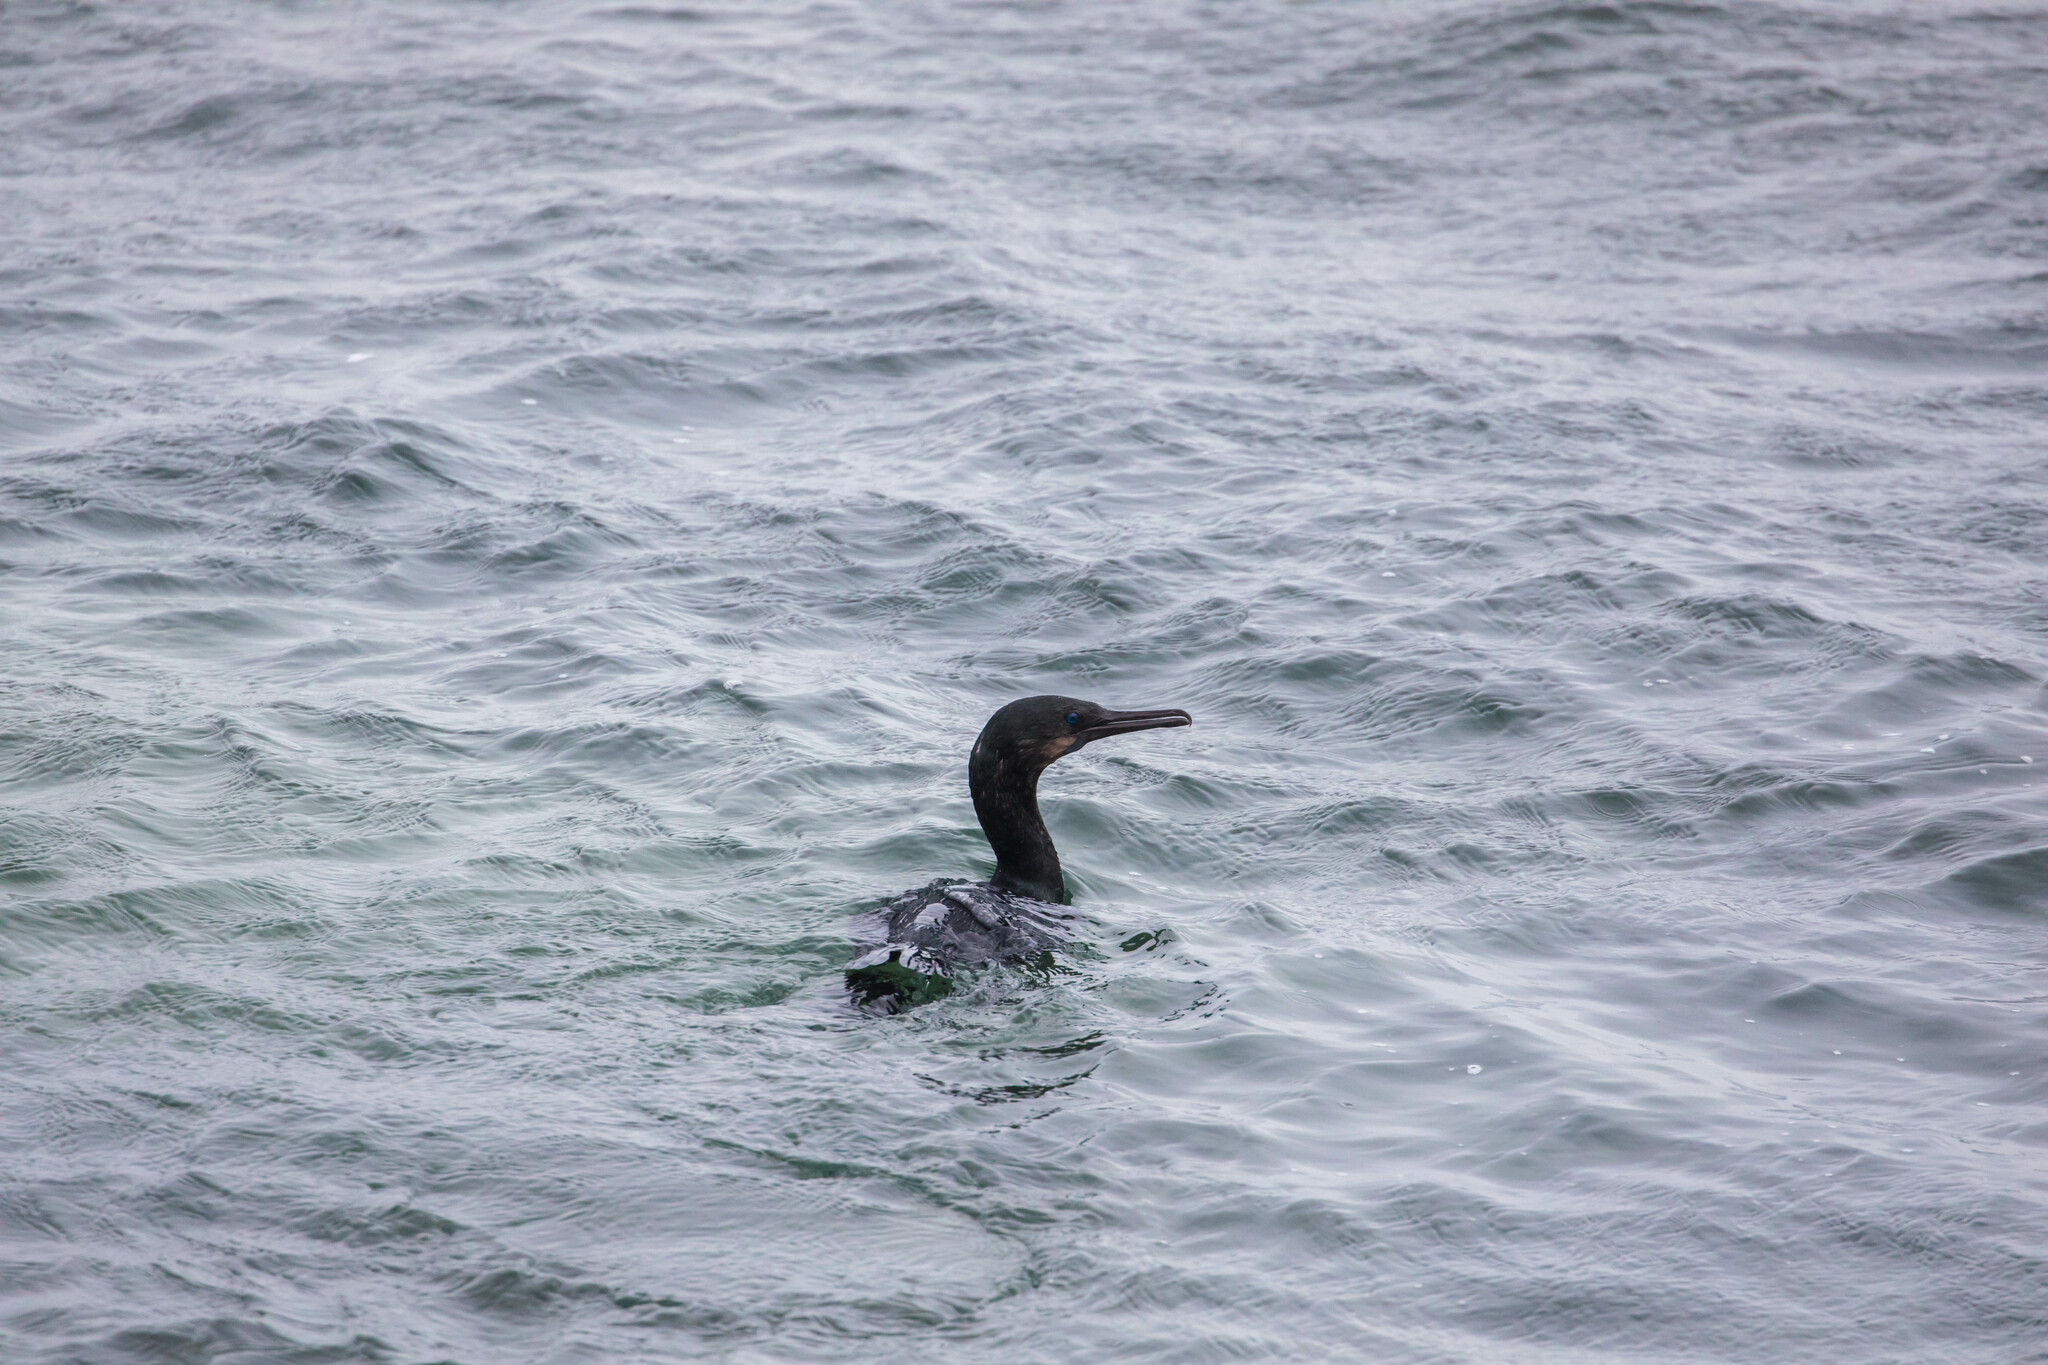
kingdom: Animalia
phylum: Chordata
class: Aves
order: Suliformes
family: Phalacrocoracidae
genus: Urile
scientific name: Urile penicillatus
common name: Brandt's cormorant
